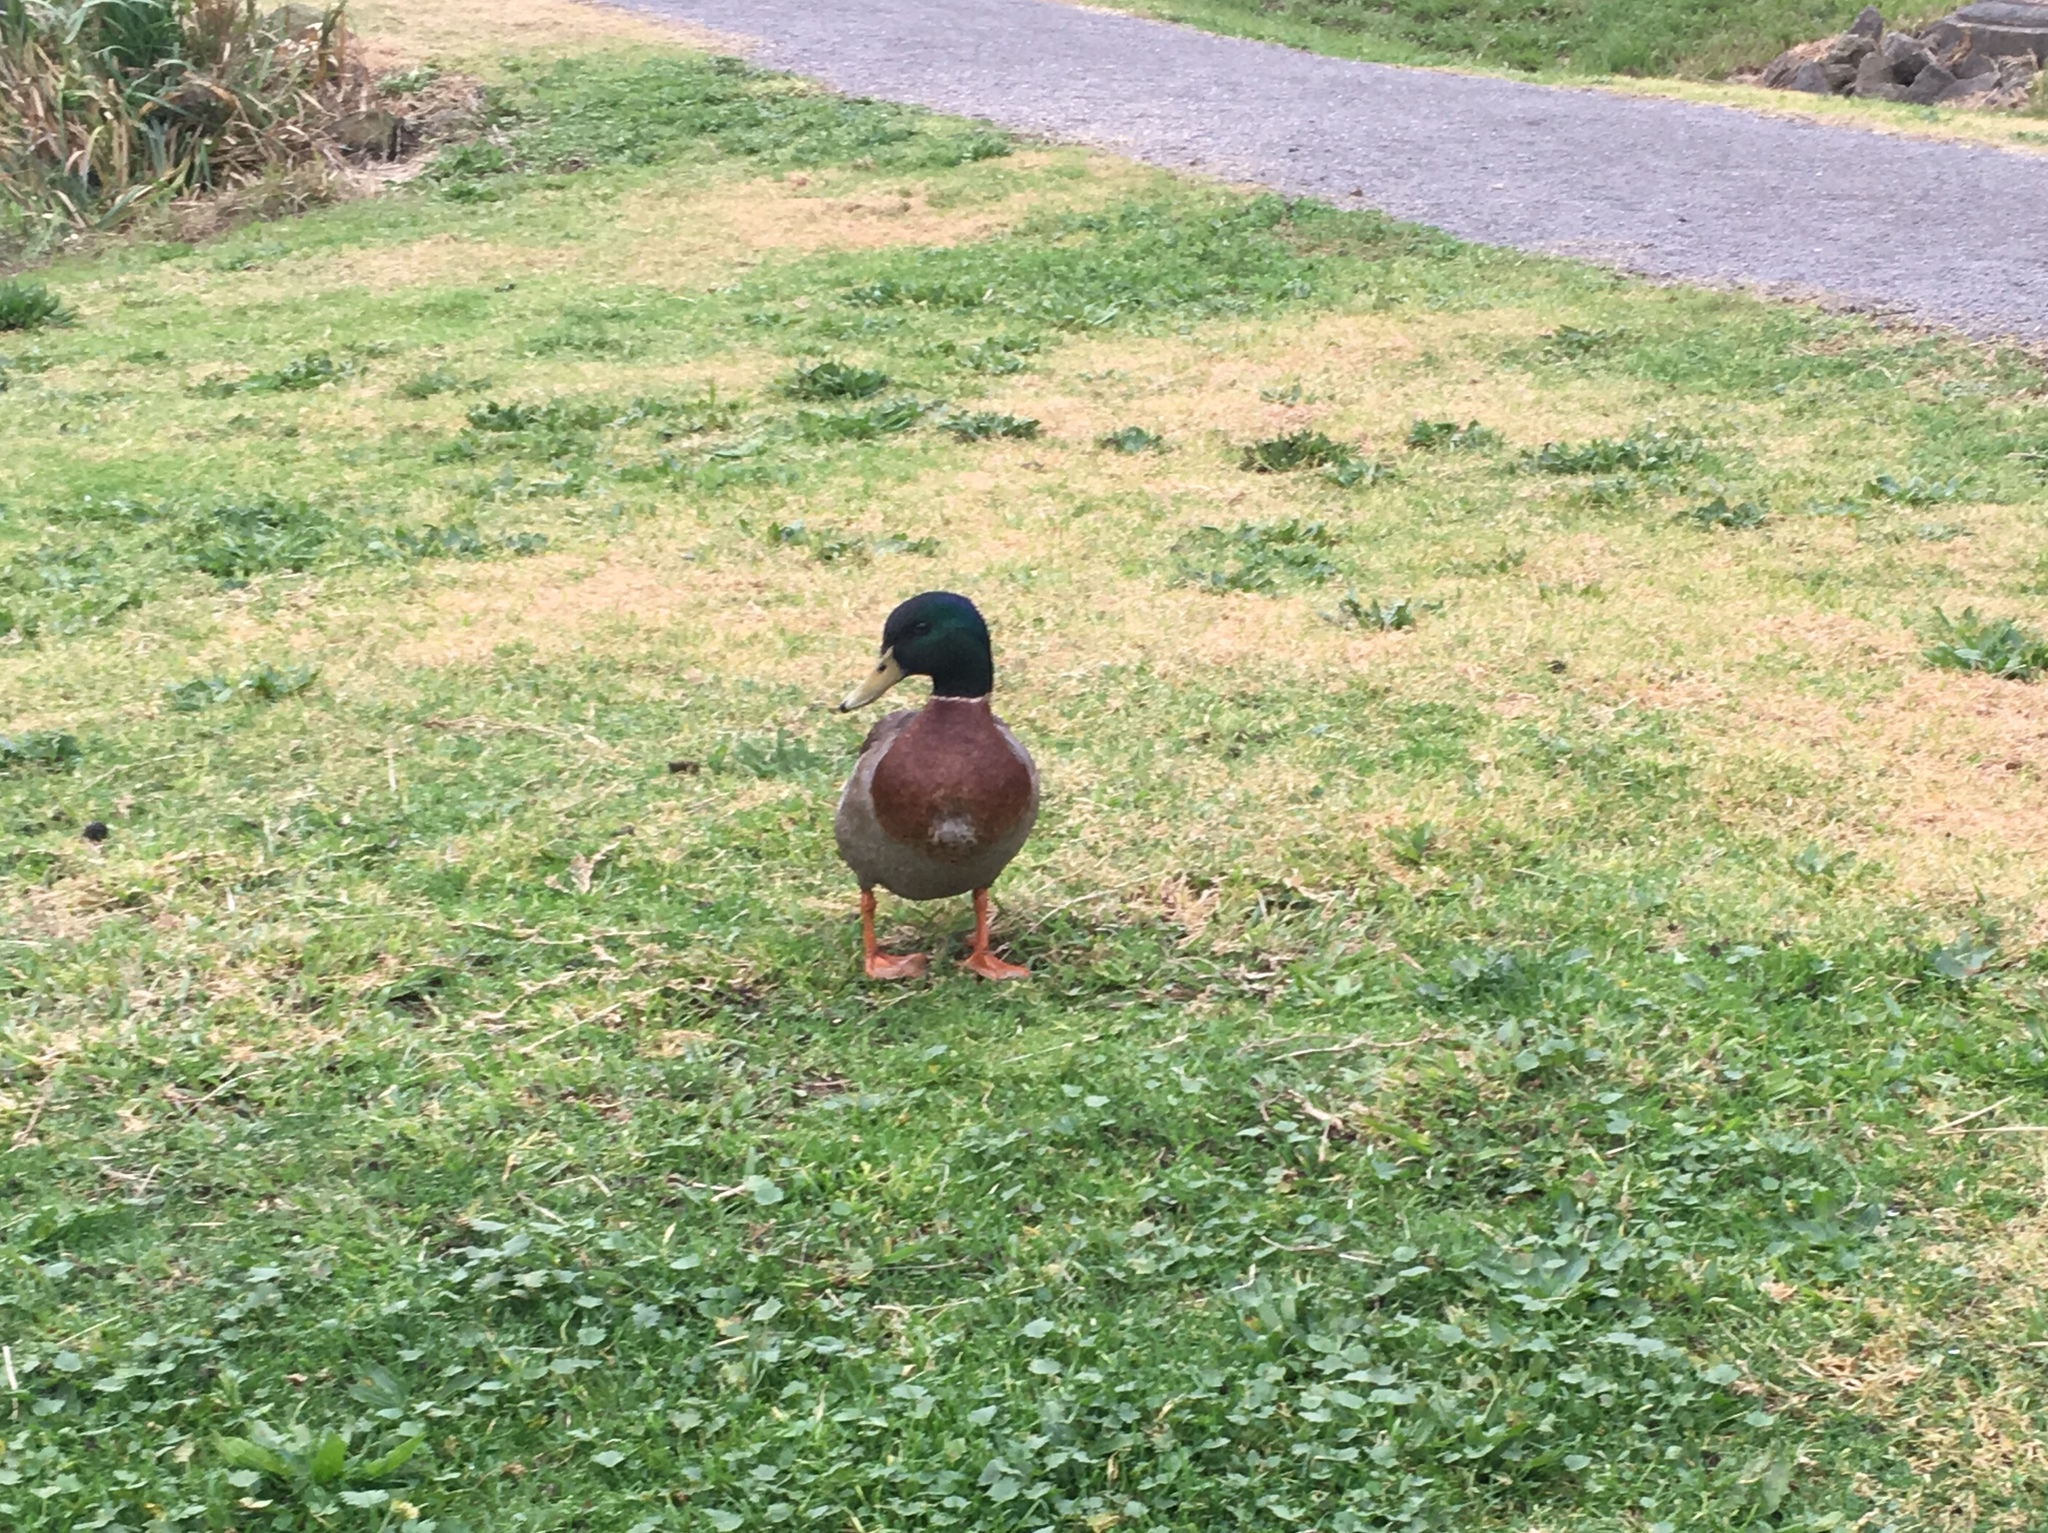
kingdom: Animalia
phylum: Chordata
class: Aves
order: Anseriformes
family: Anatidae
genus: Anas
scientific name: Anas platyrhynchos
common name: Mallard
